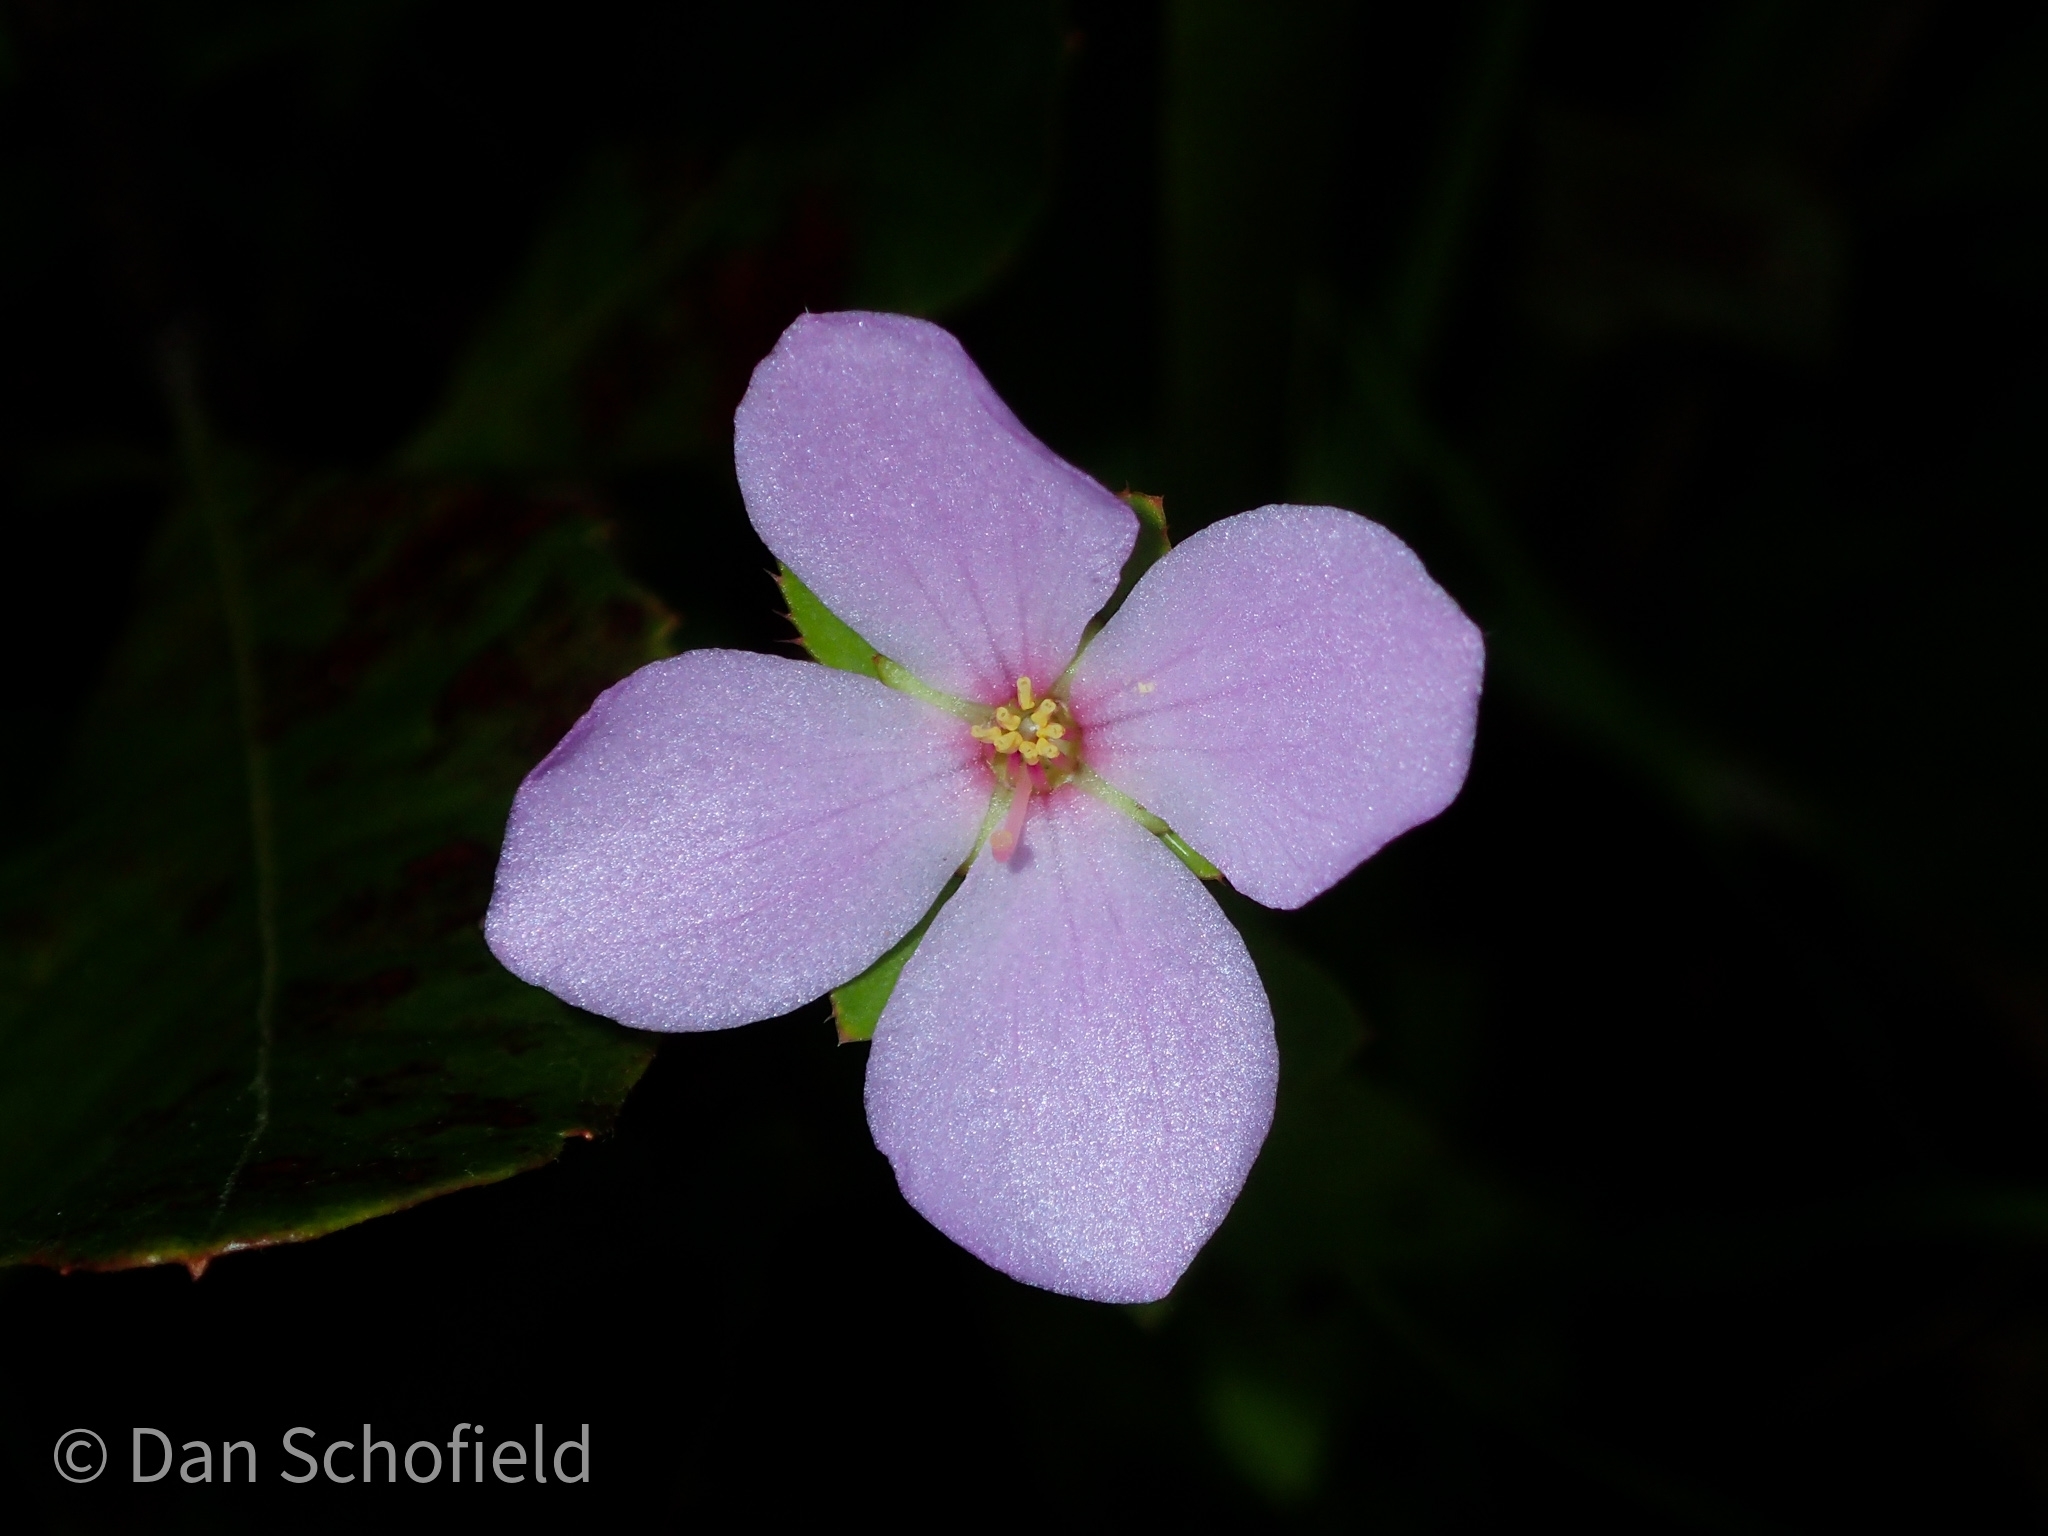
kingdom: Plantae
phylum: Tracheophyta
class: Magnoliopsida
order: Myrtales
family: Melastomataceae
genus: Rhexia
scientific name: Rhexia petiolata
